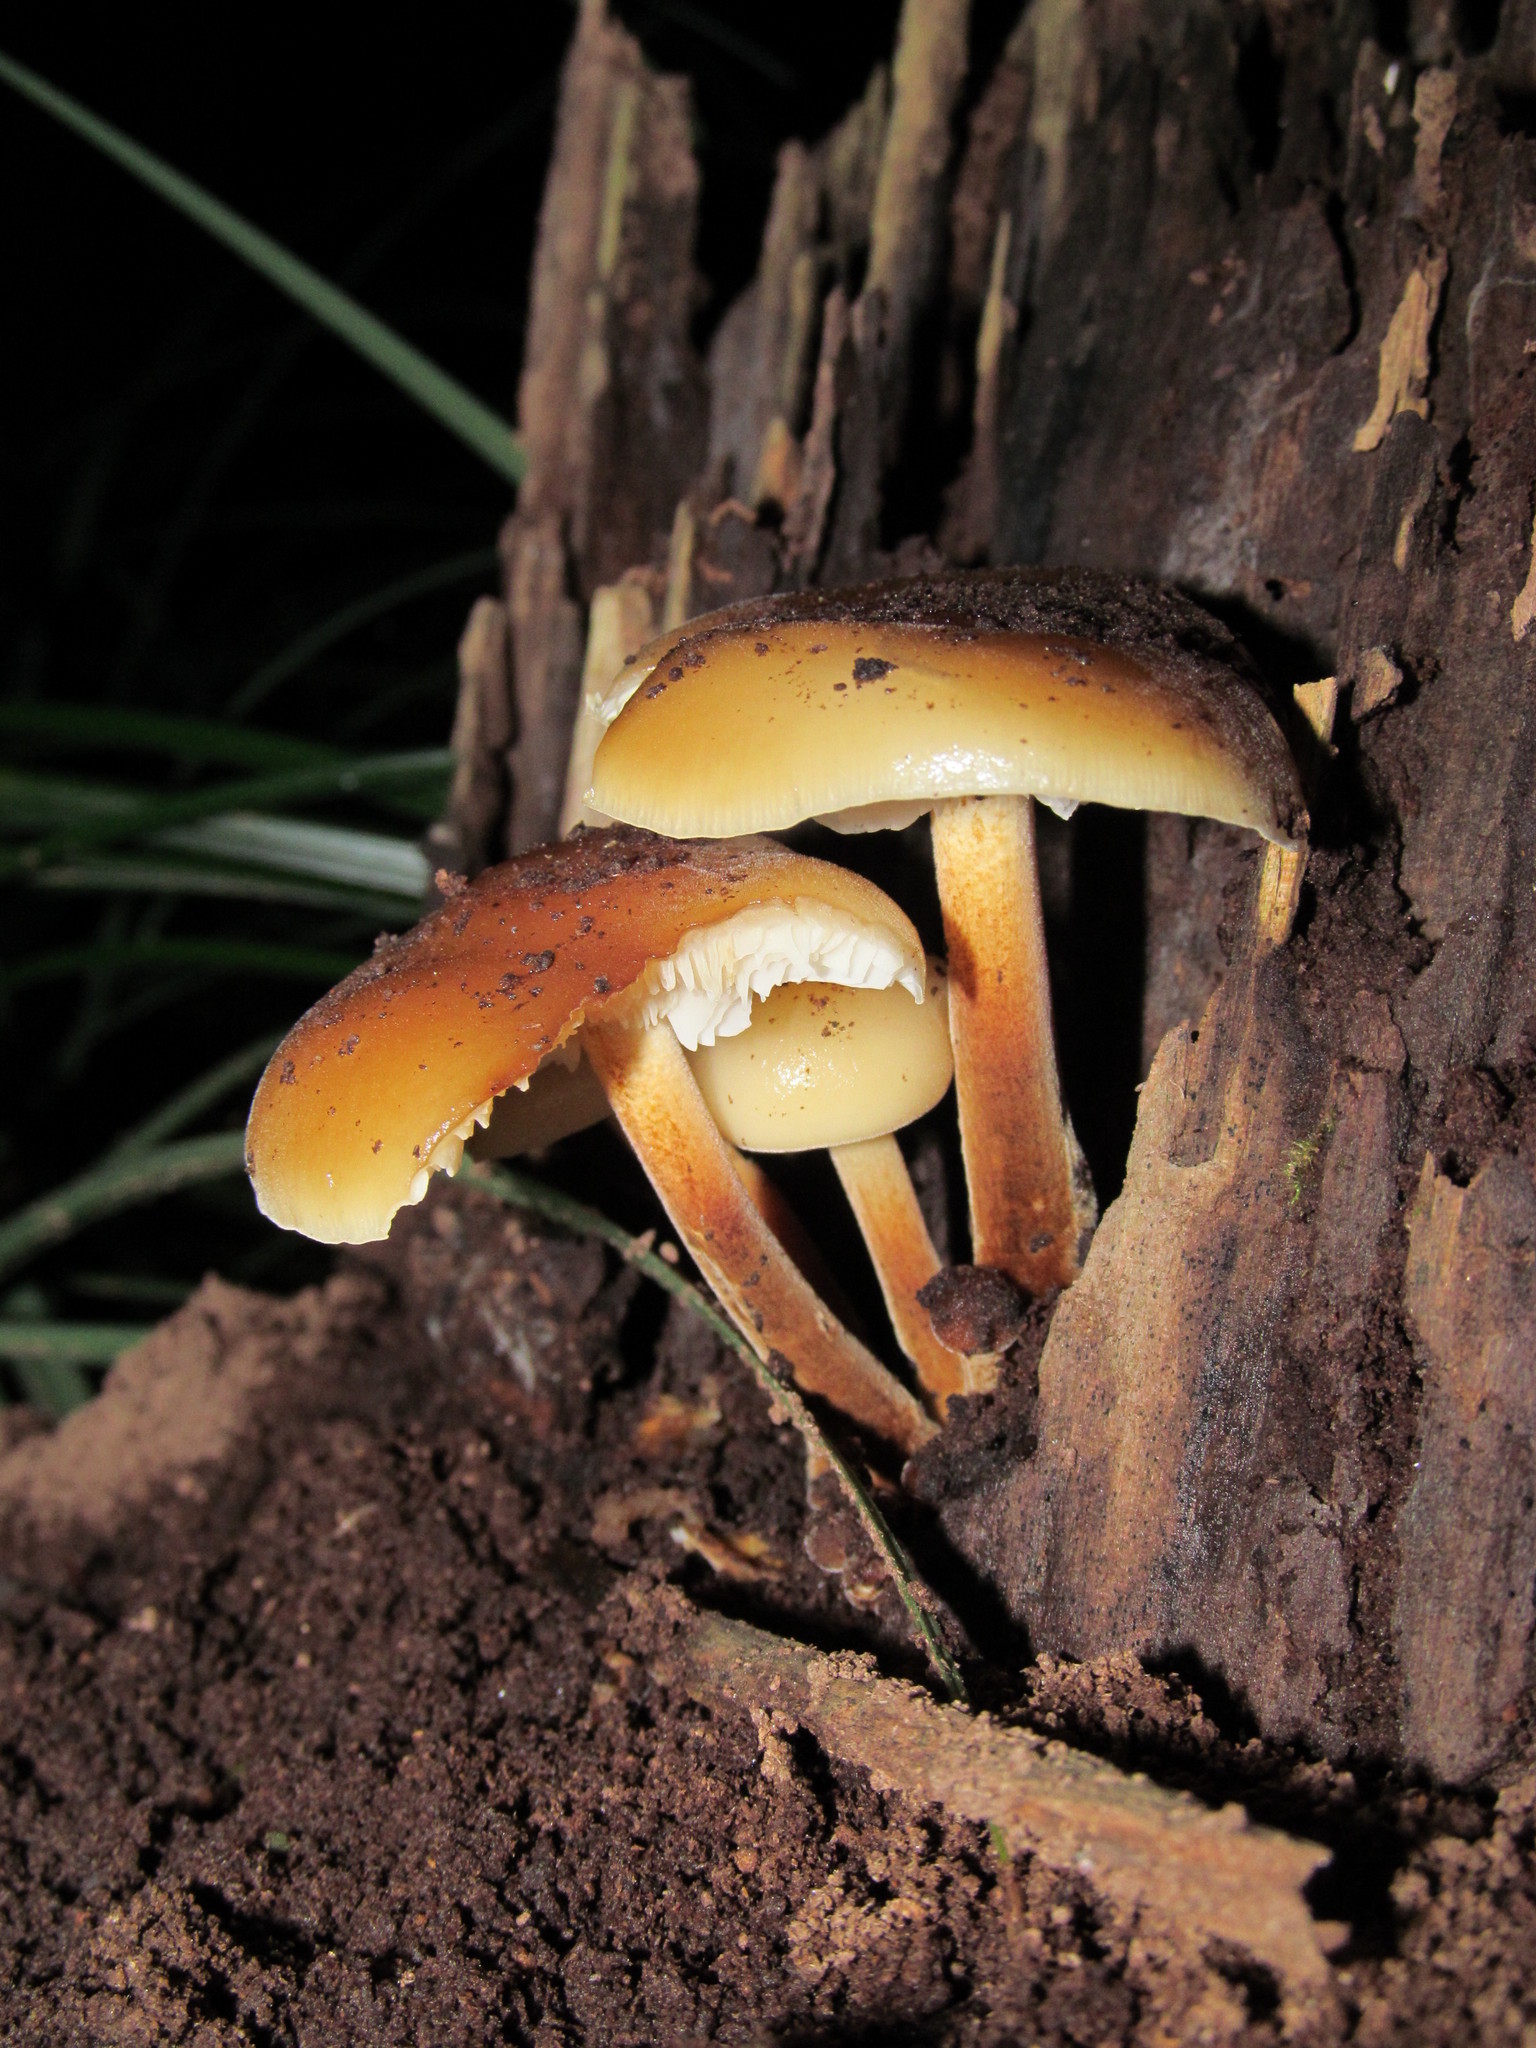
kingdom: Fungi
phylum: Basidiomycota
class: Agaricomycetes
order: Agaricales
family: Physalacriaceae
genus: Flammulina
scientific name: Flammulina velutipes
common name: Velvet shank
